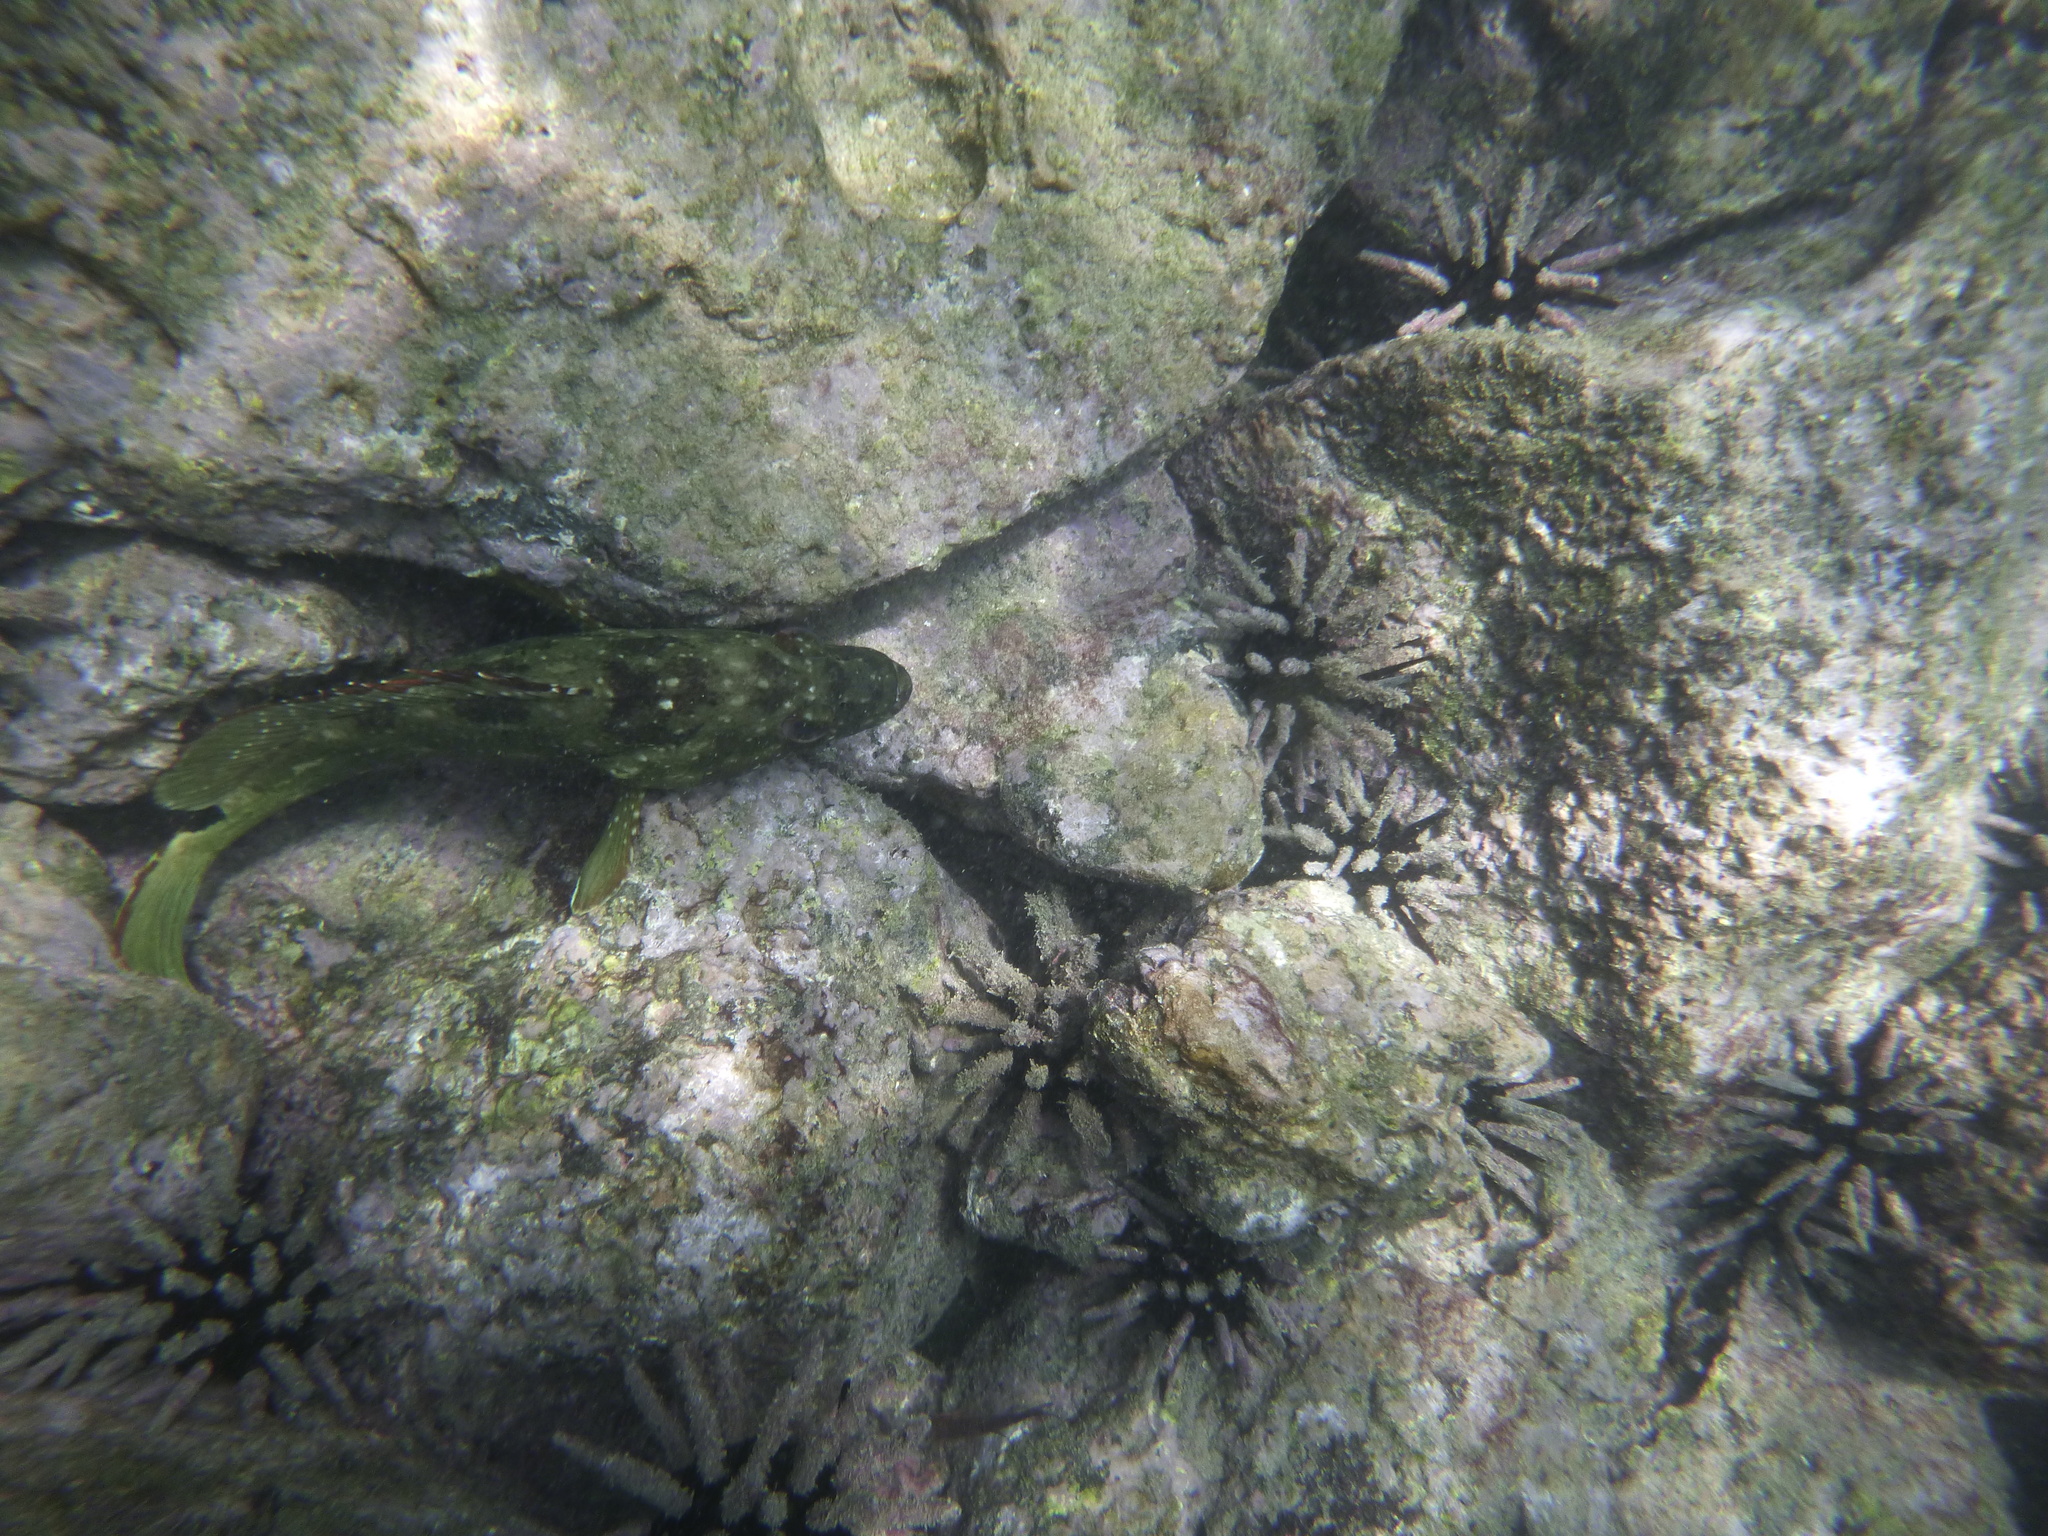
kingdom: Animalia
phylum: Chordata
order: Perciformes
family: Serranidae
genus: Epinephelus
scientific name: Epinephelus labriformis
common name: Flag cabrilla
